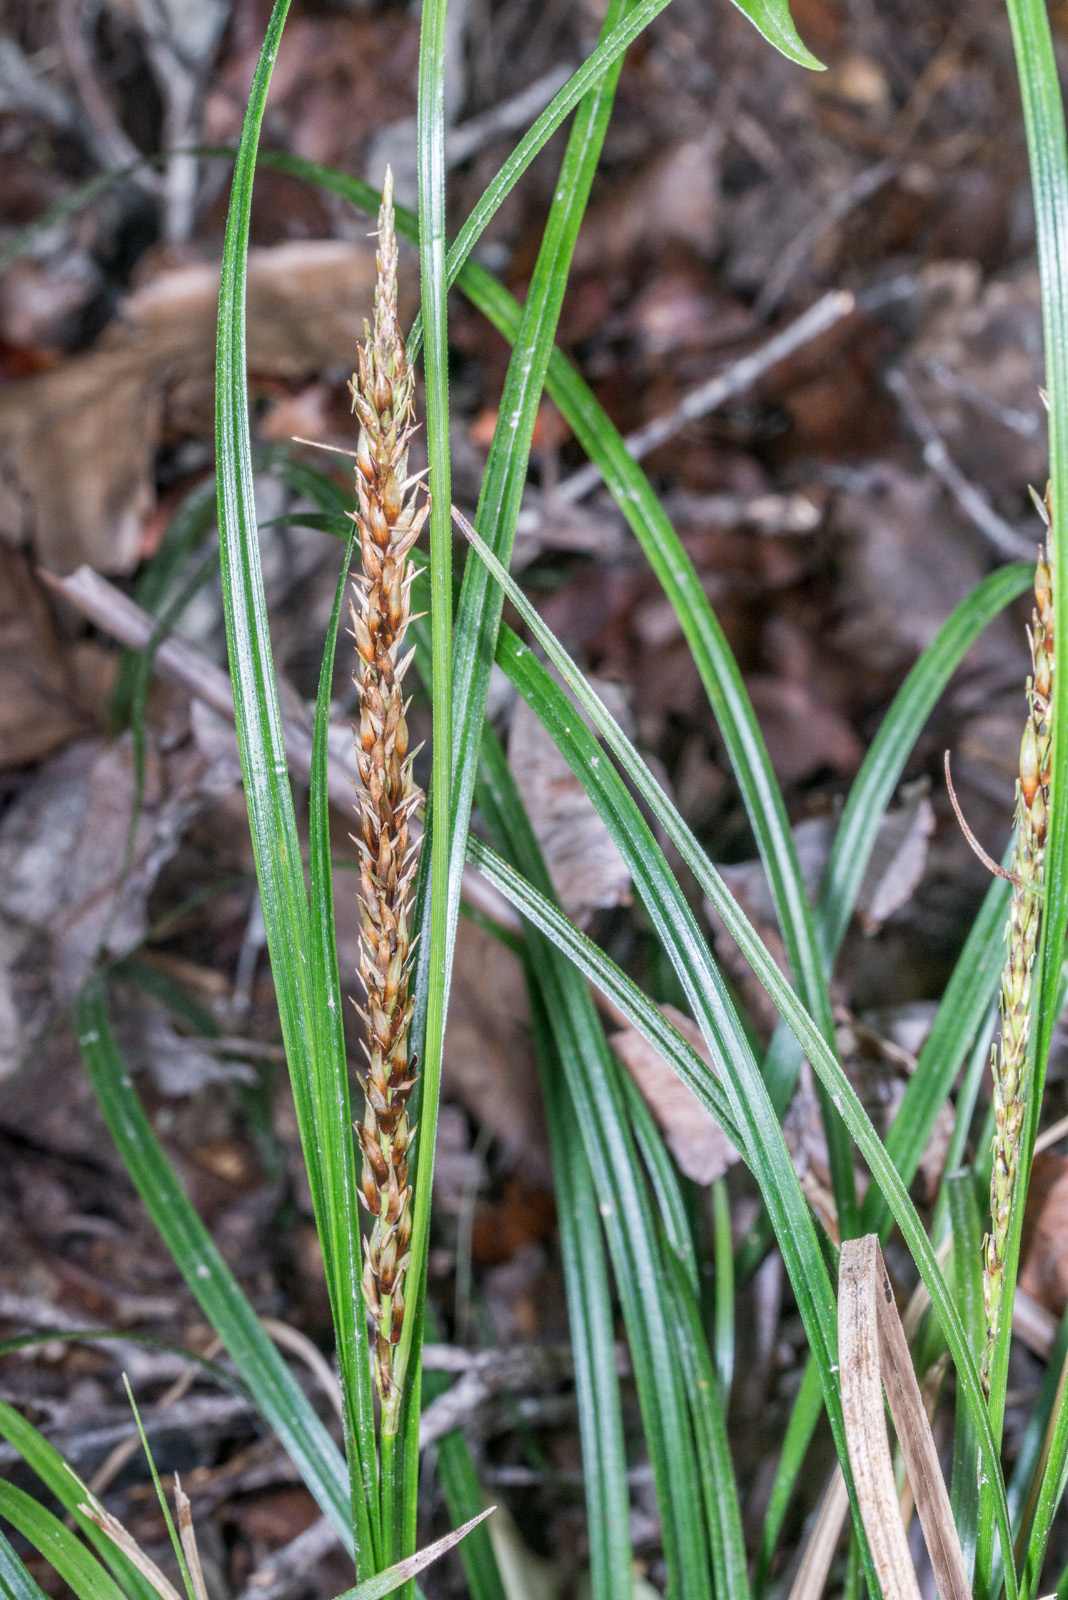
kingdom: Plantae
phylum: Tracheophyta
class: Liliopsida
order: Poales
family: Cyperaceae
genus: Carex
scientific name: Carex uncinata
